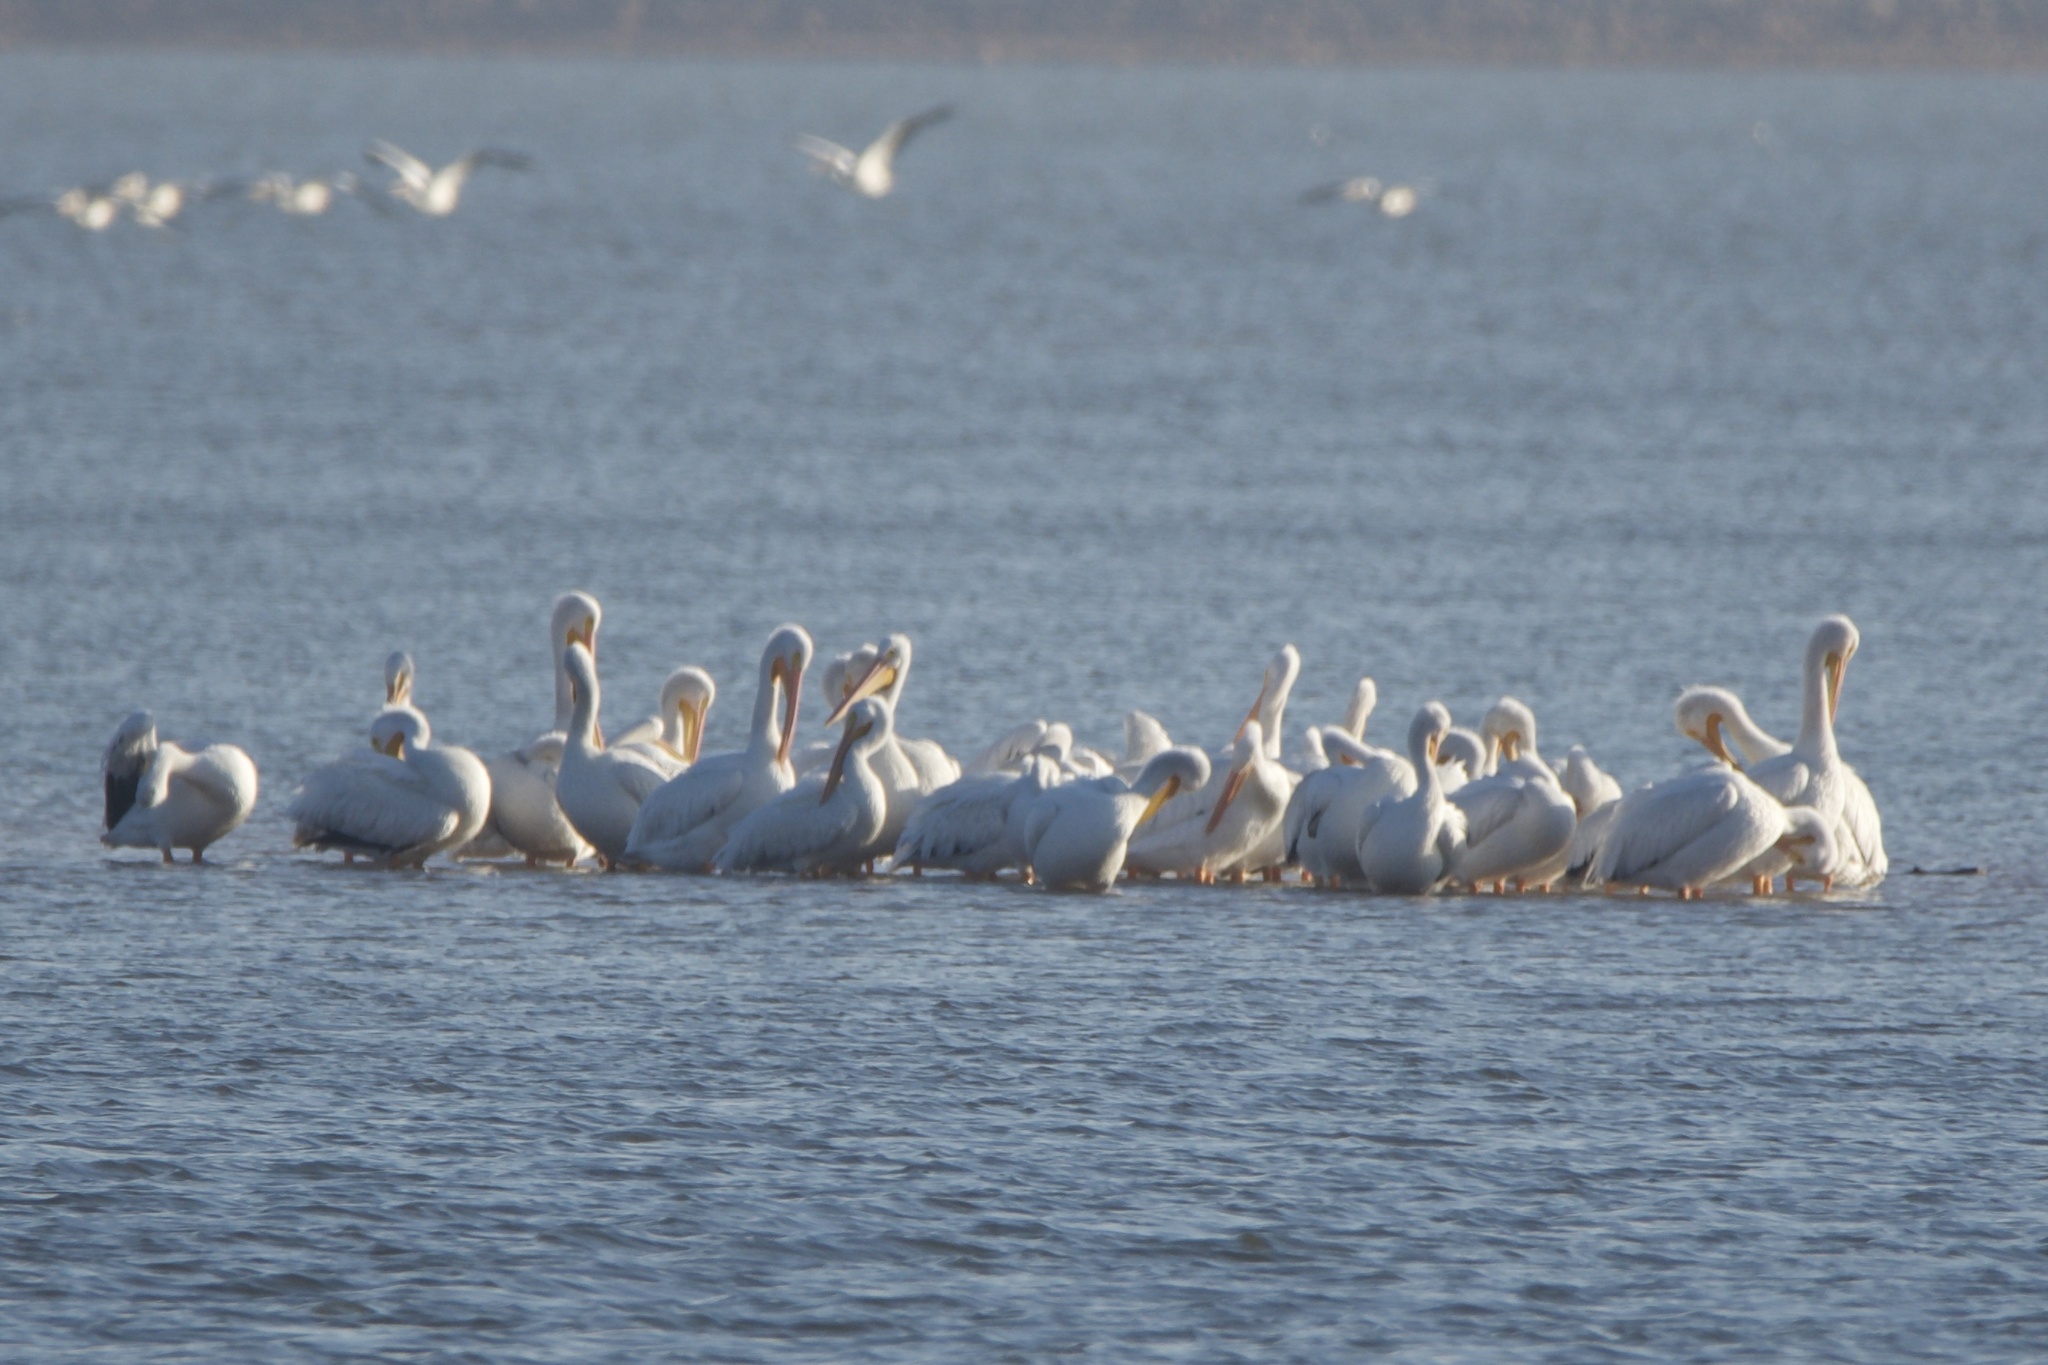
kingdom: Animalia
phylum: Chordata
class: Aves
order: Pelecaniformes
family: Pelecanidae
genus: Pelecanus
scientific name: Pelecanus erythrorhynchos
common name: American white pelican
